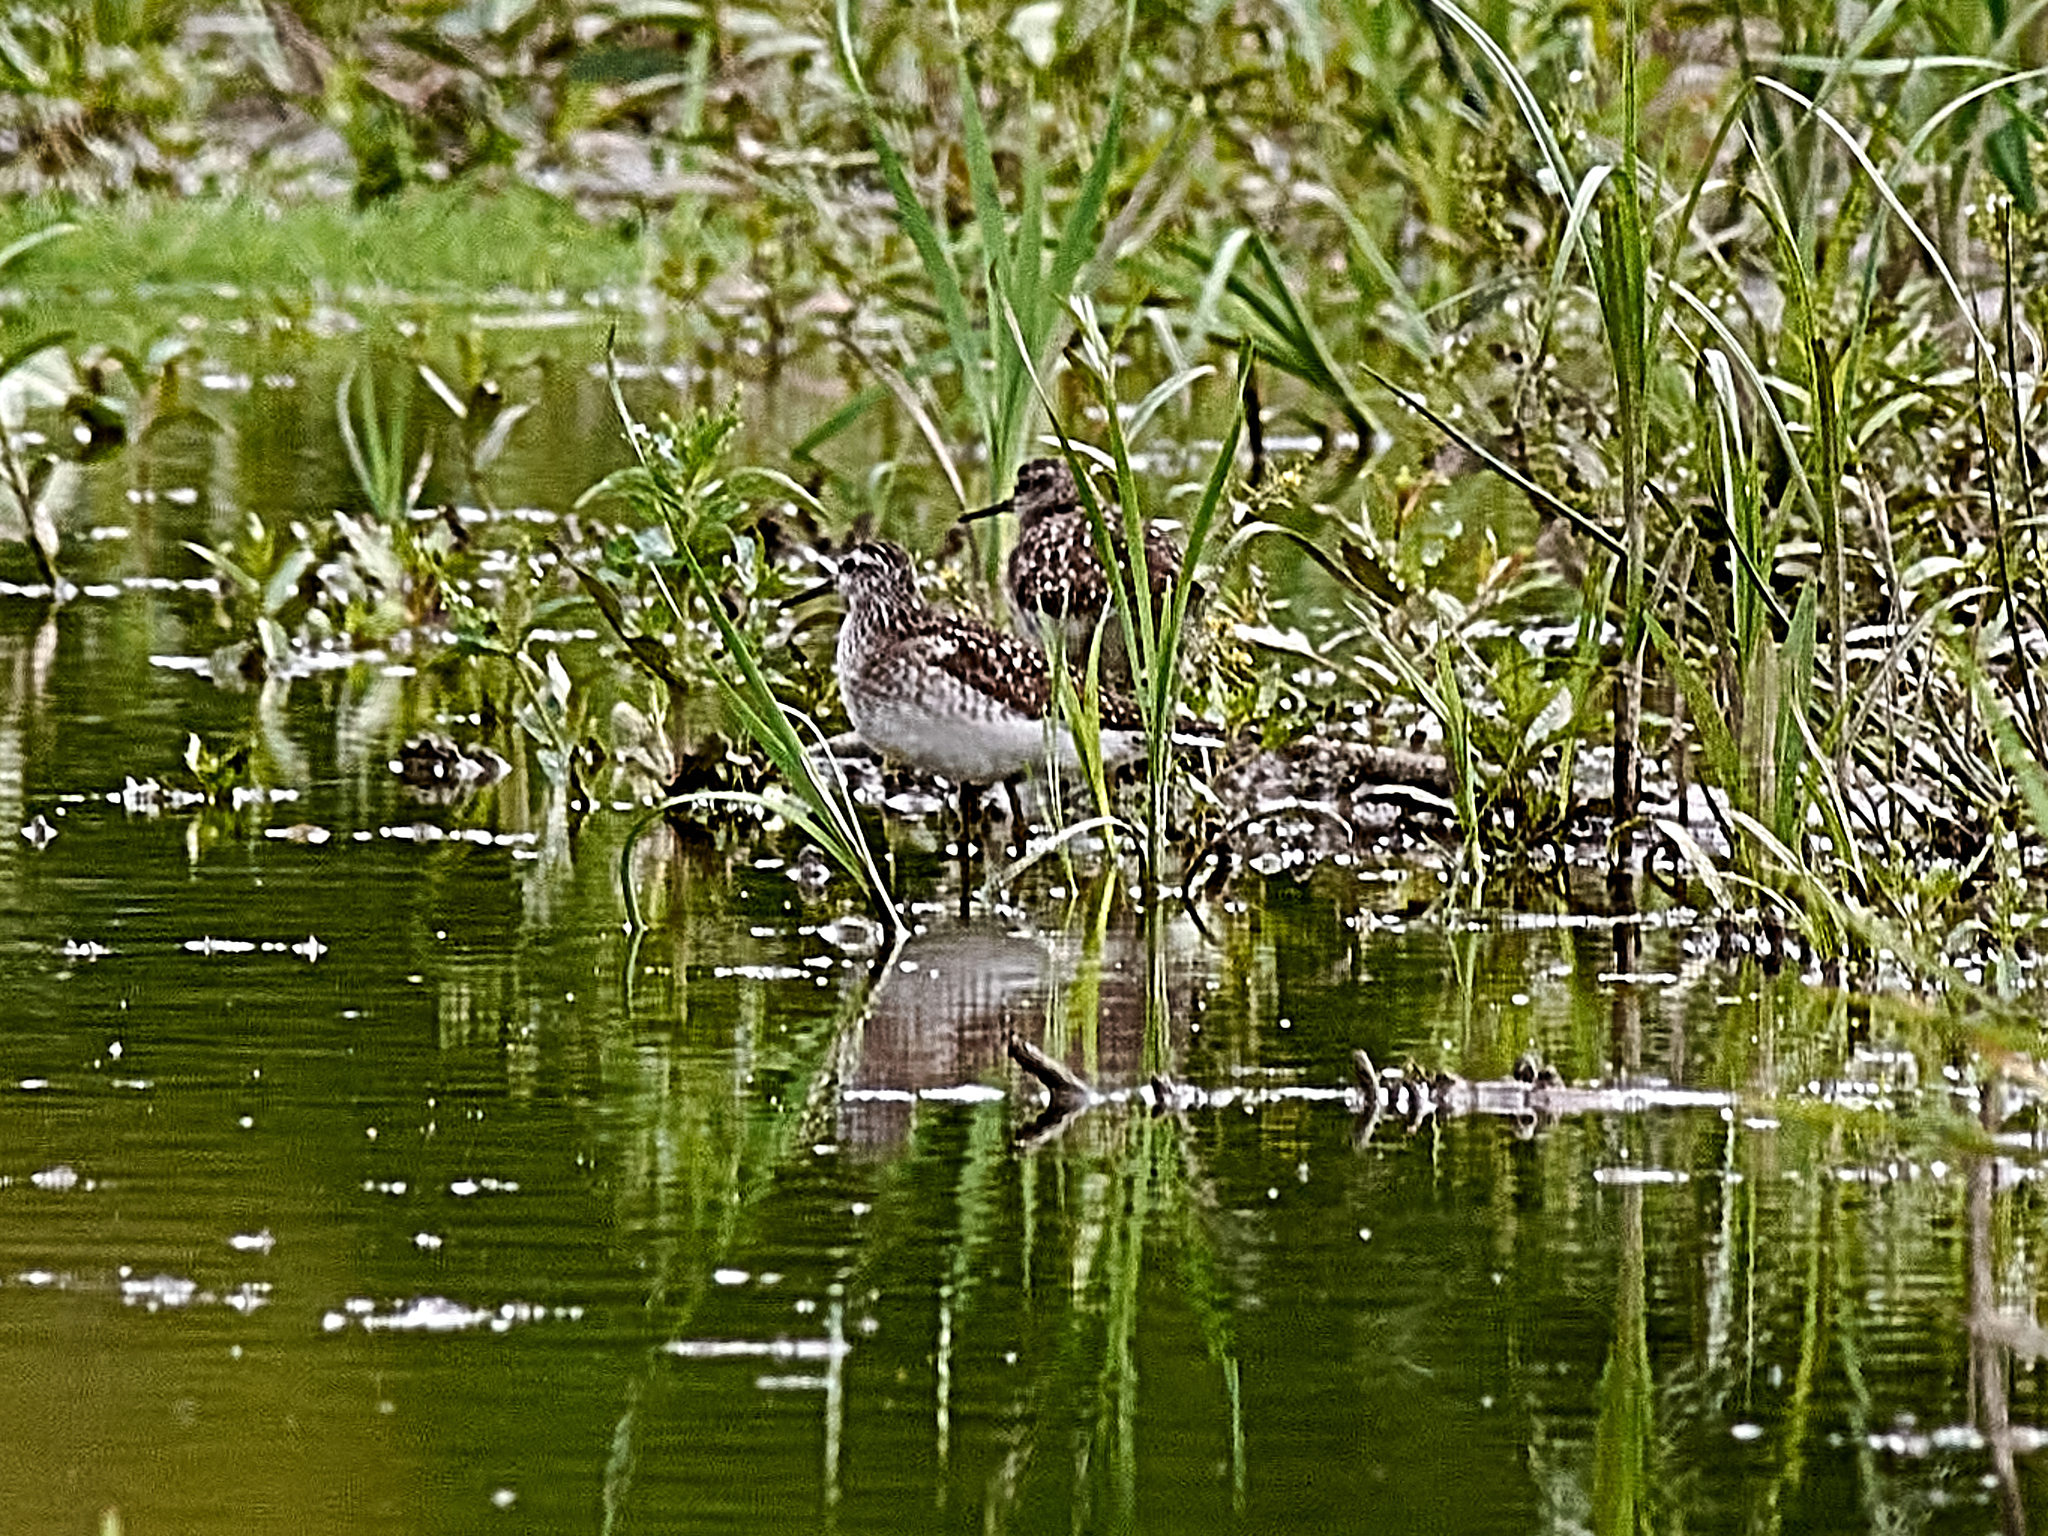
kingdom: Animalia
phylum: Chordata
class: Aves
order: Charadriiformes
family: Scolopacidae
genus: Tringa
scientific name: Tringa glareola
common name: Wood sandpiper
